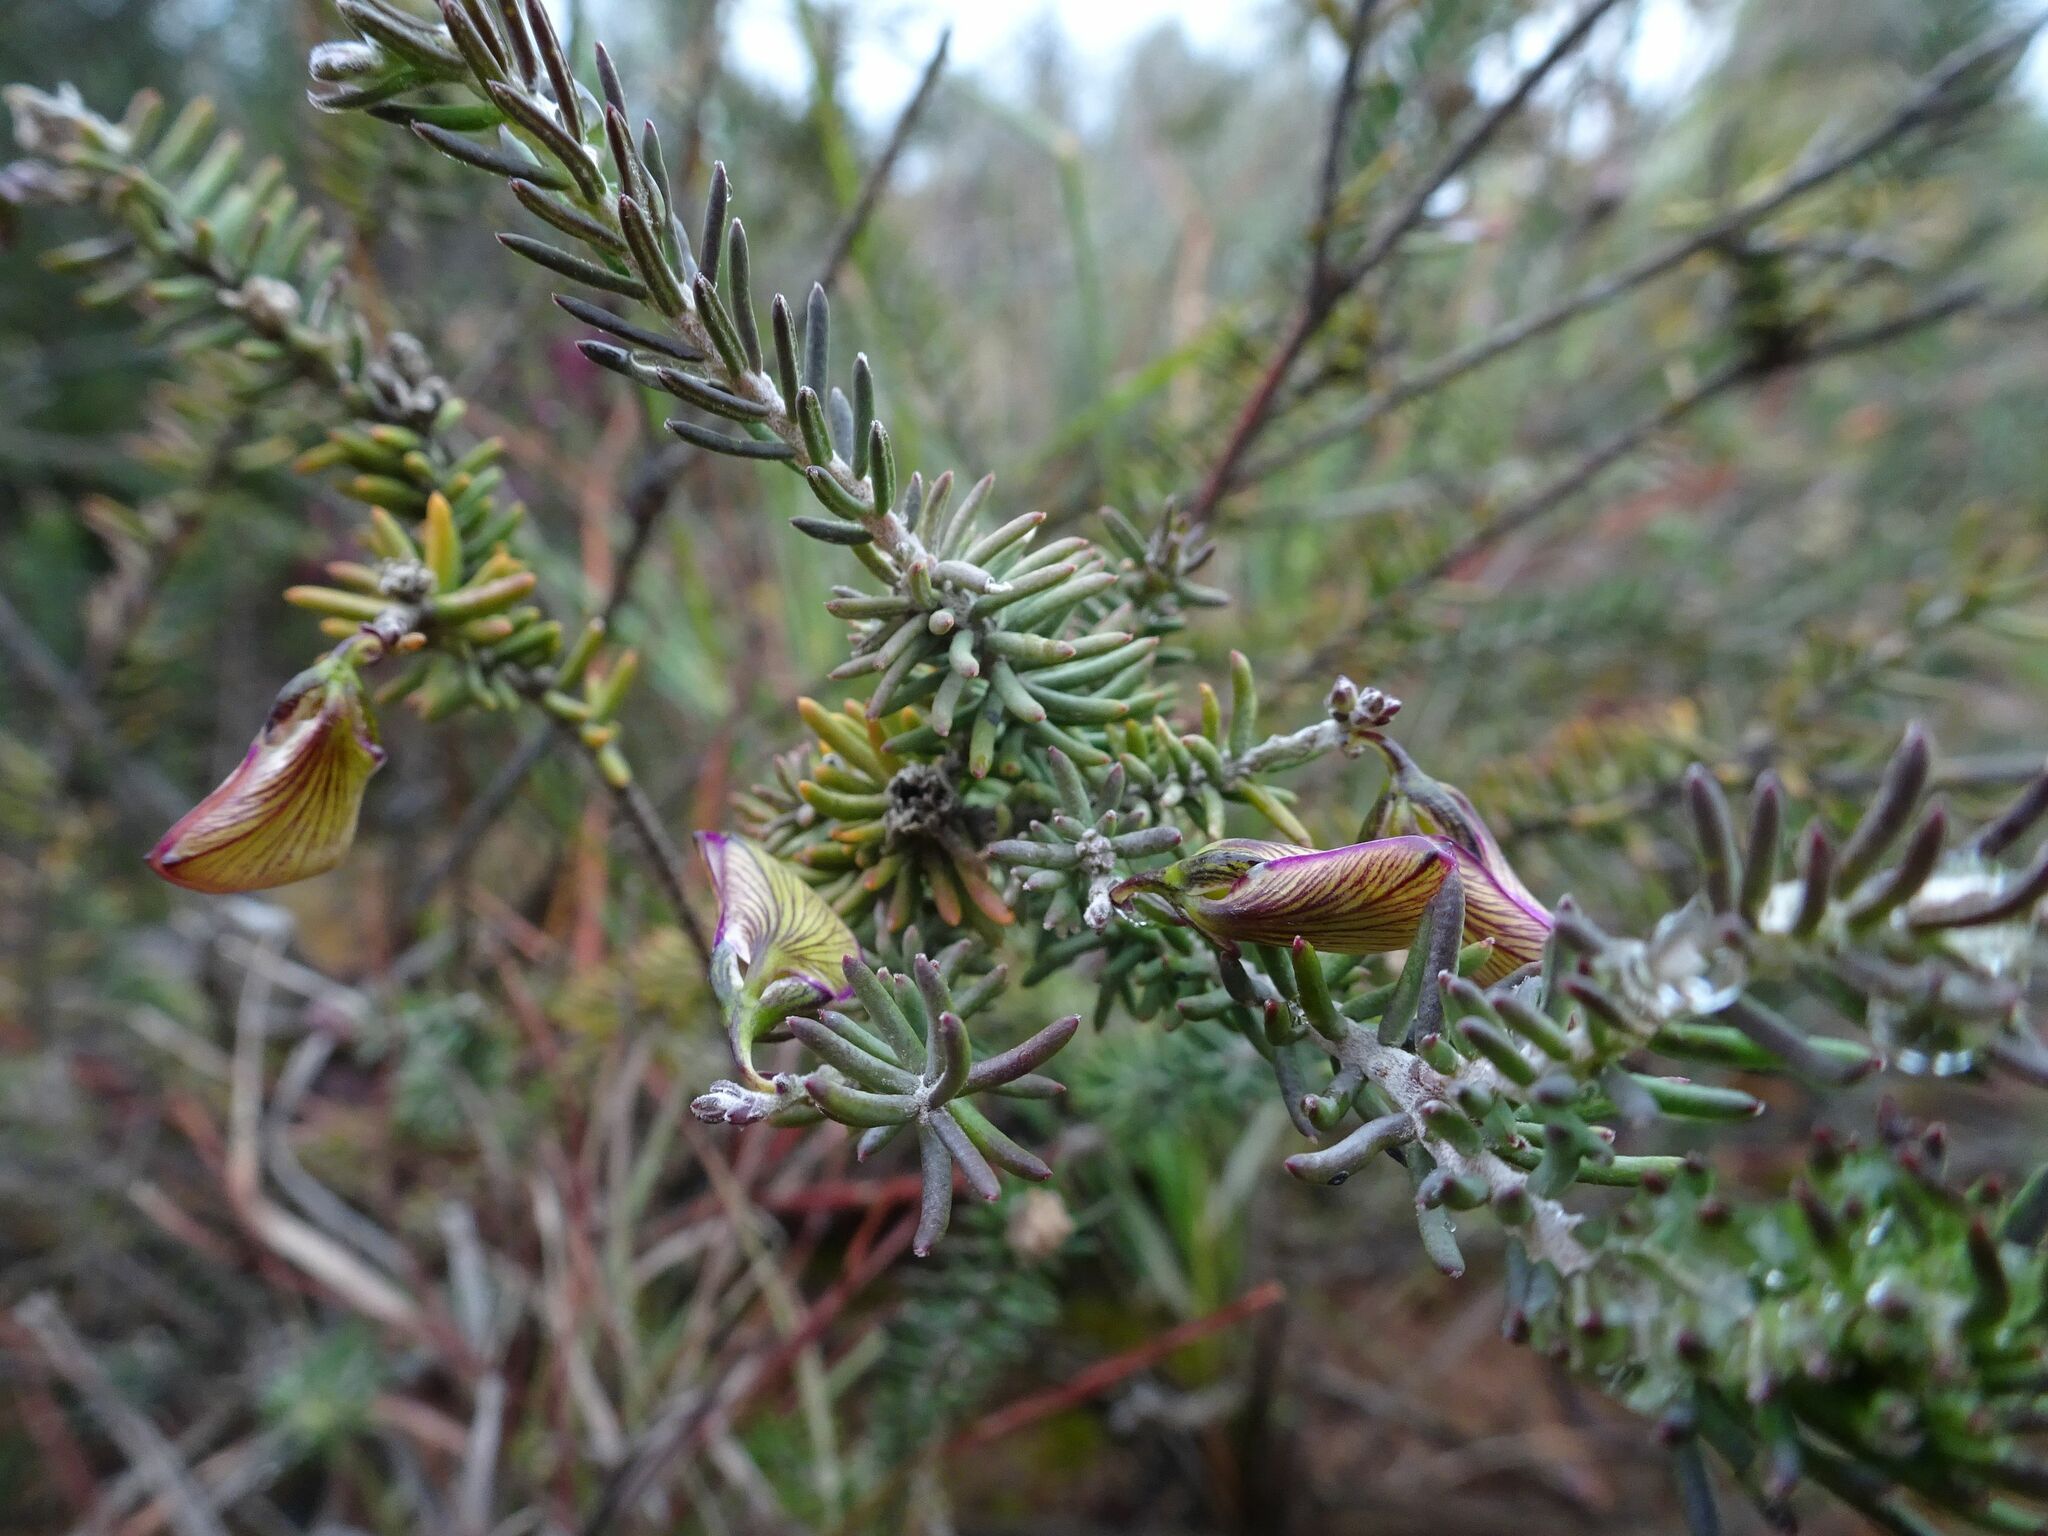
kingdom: Plantae
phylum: Tracheophyta
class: Magnoliopsida
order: Fabales
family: Polygalaceae
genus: Polygala
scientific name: Polygala teretifolia
